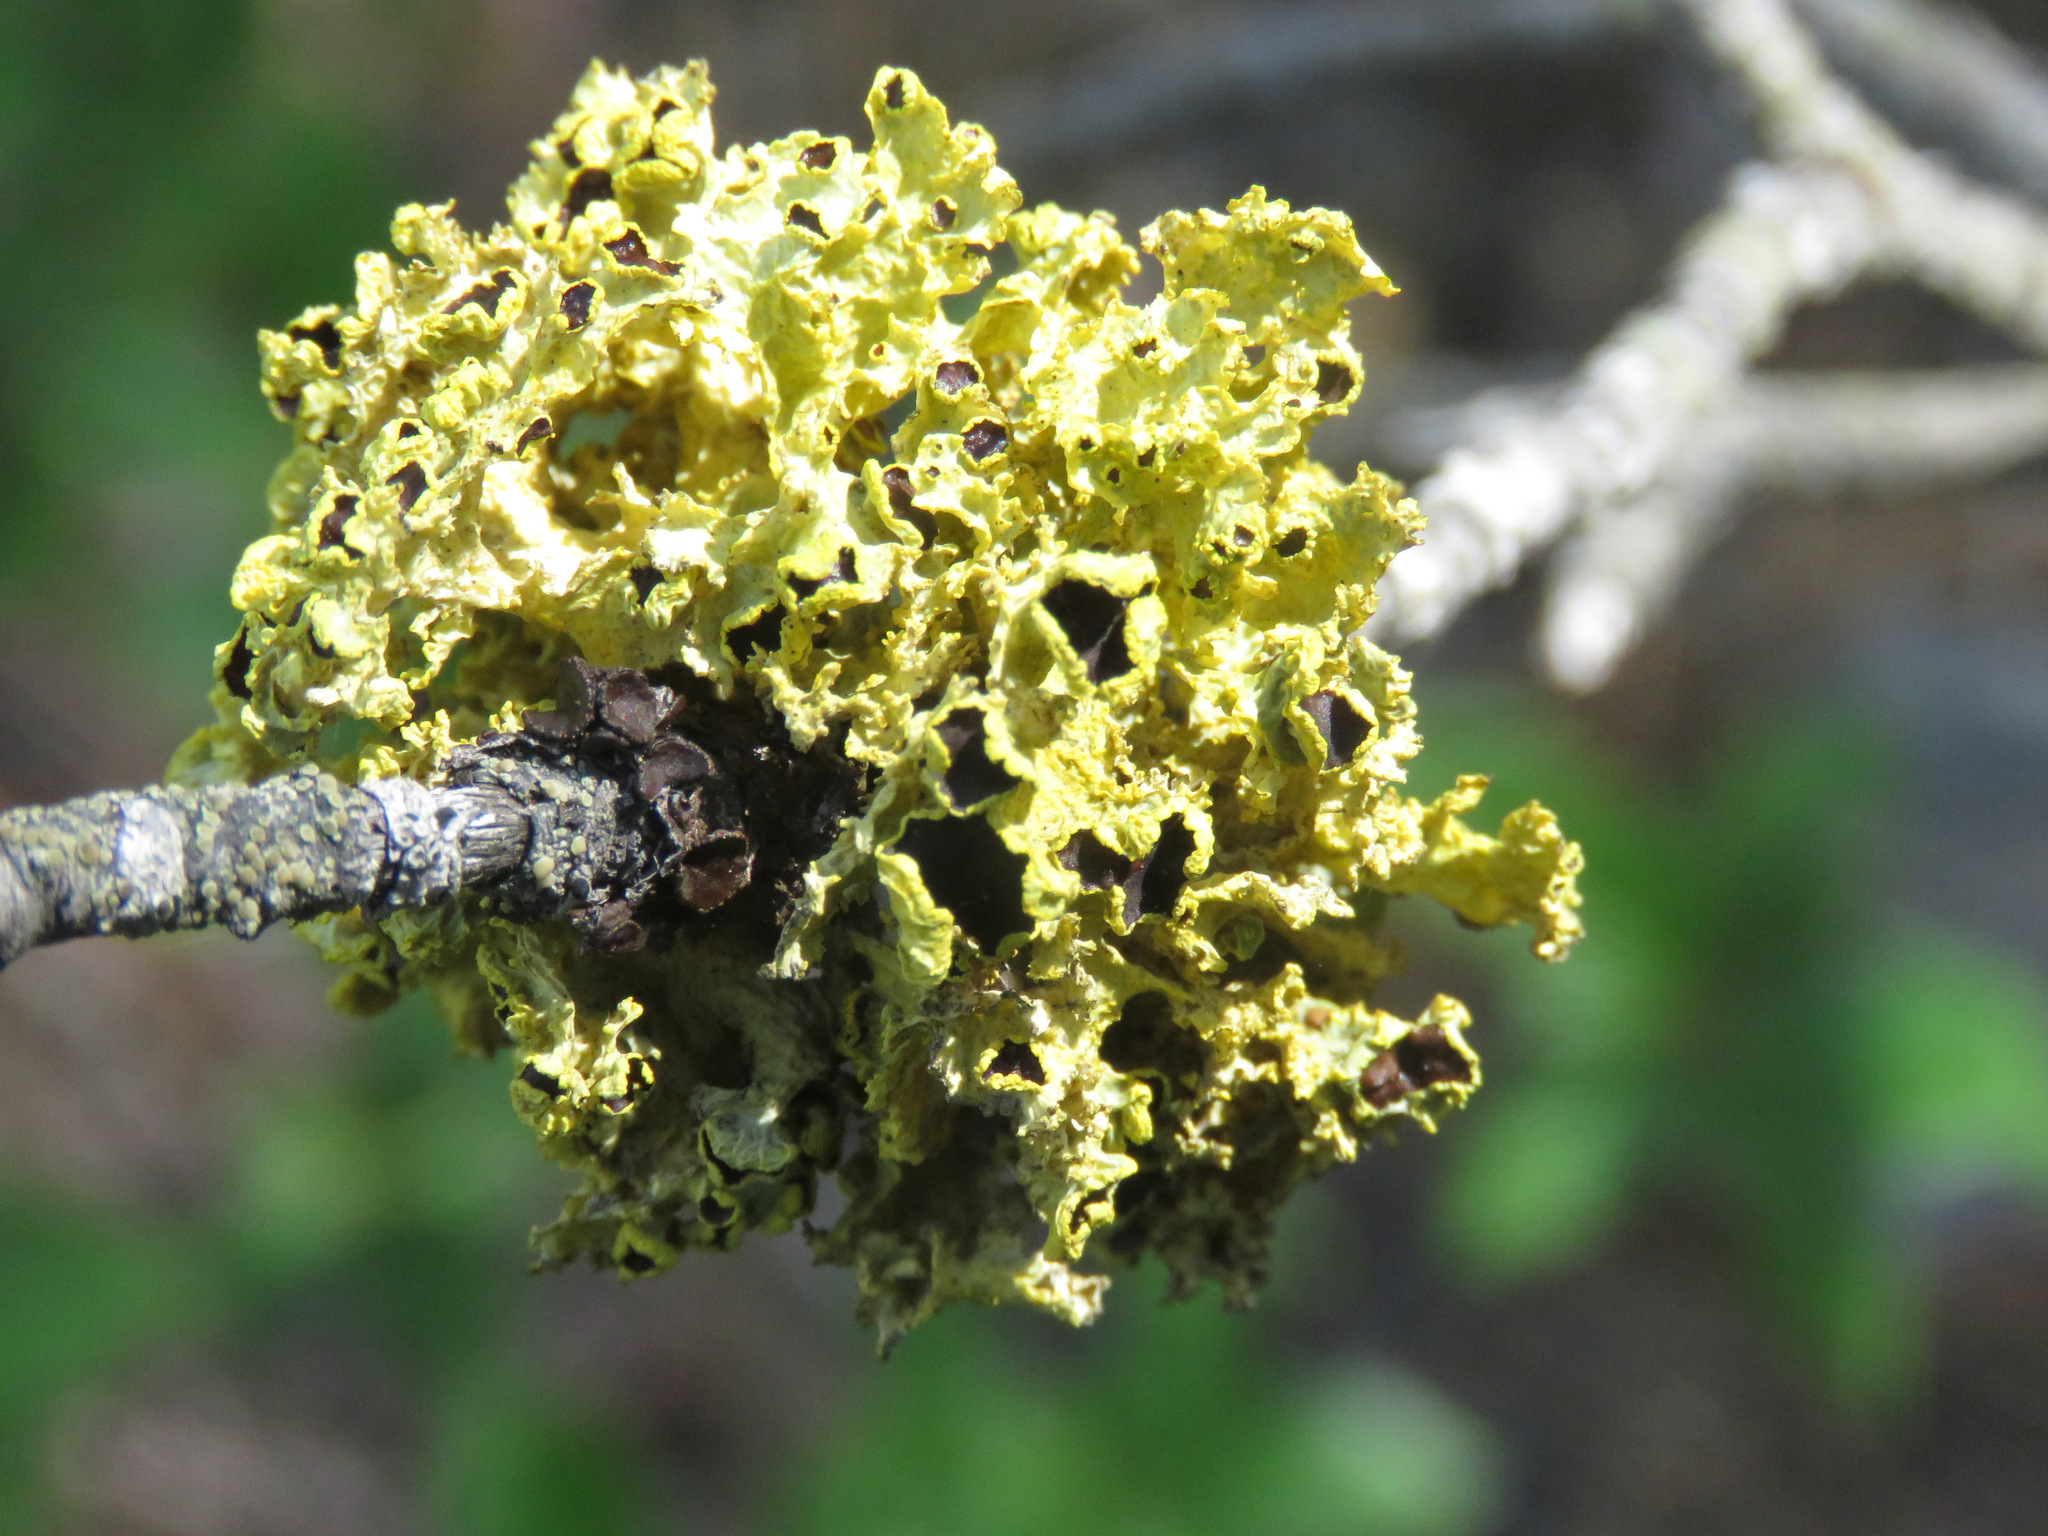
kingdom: Fungi
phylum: Ascomycota
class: Lecanoromycetes
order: Lecanorales
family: Parmeliaceae
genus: Vulpicida
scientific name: Vulpicida canadensis
